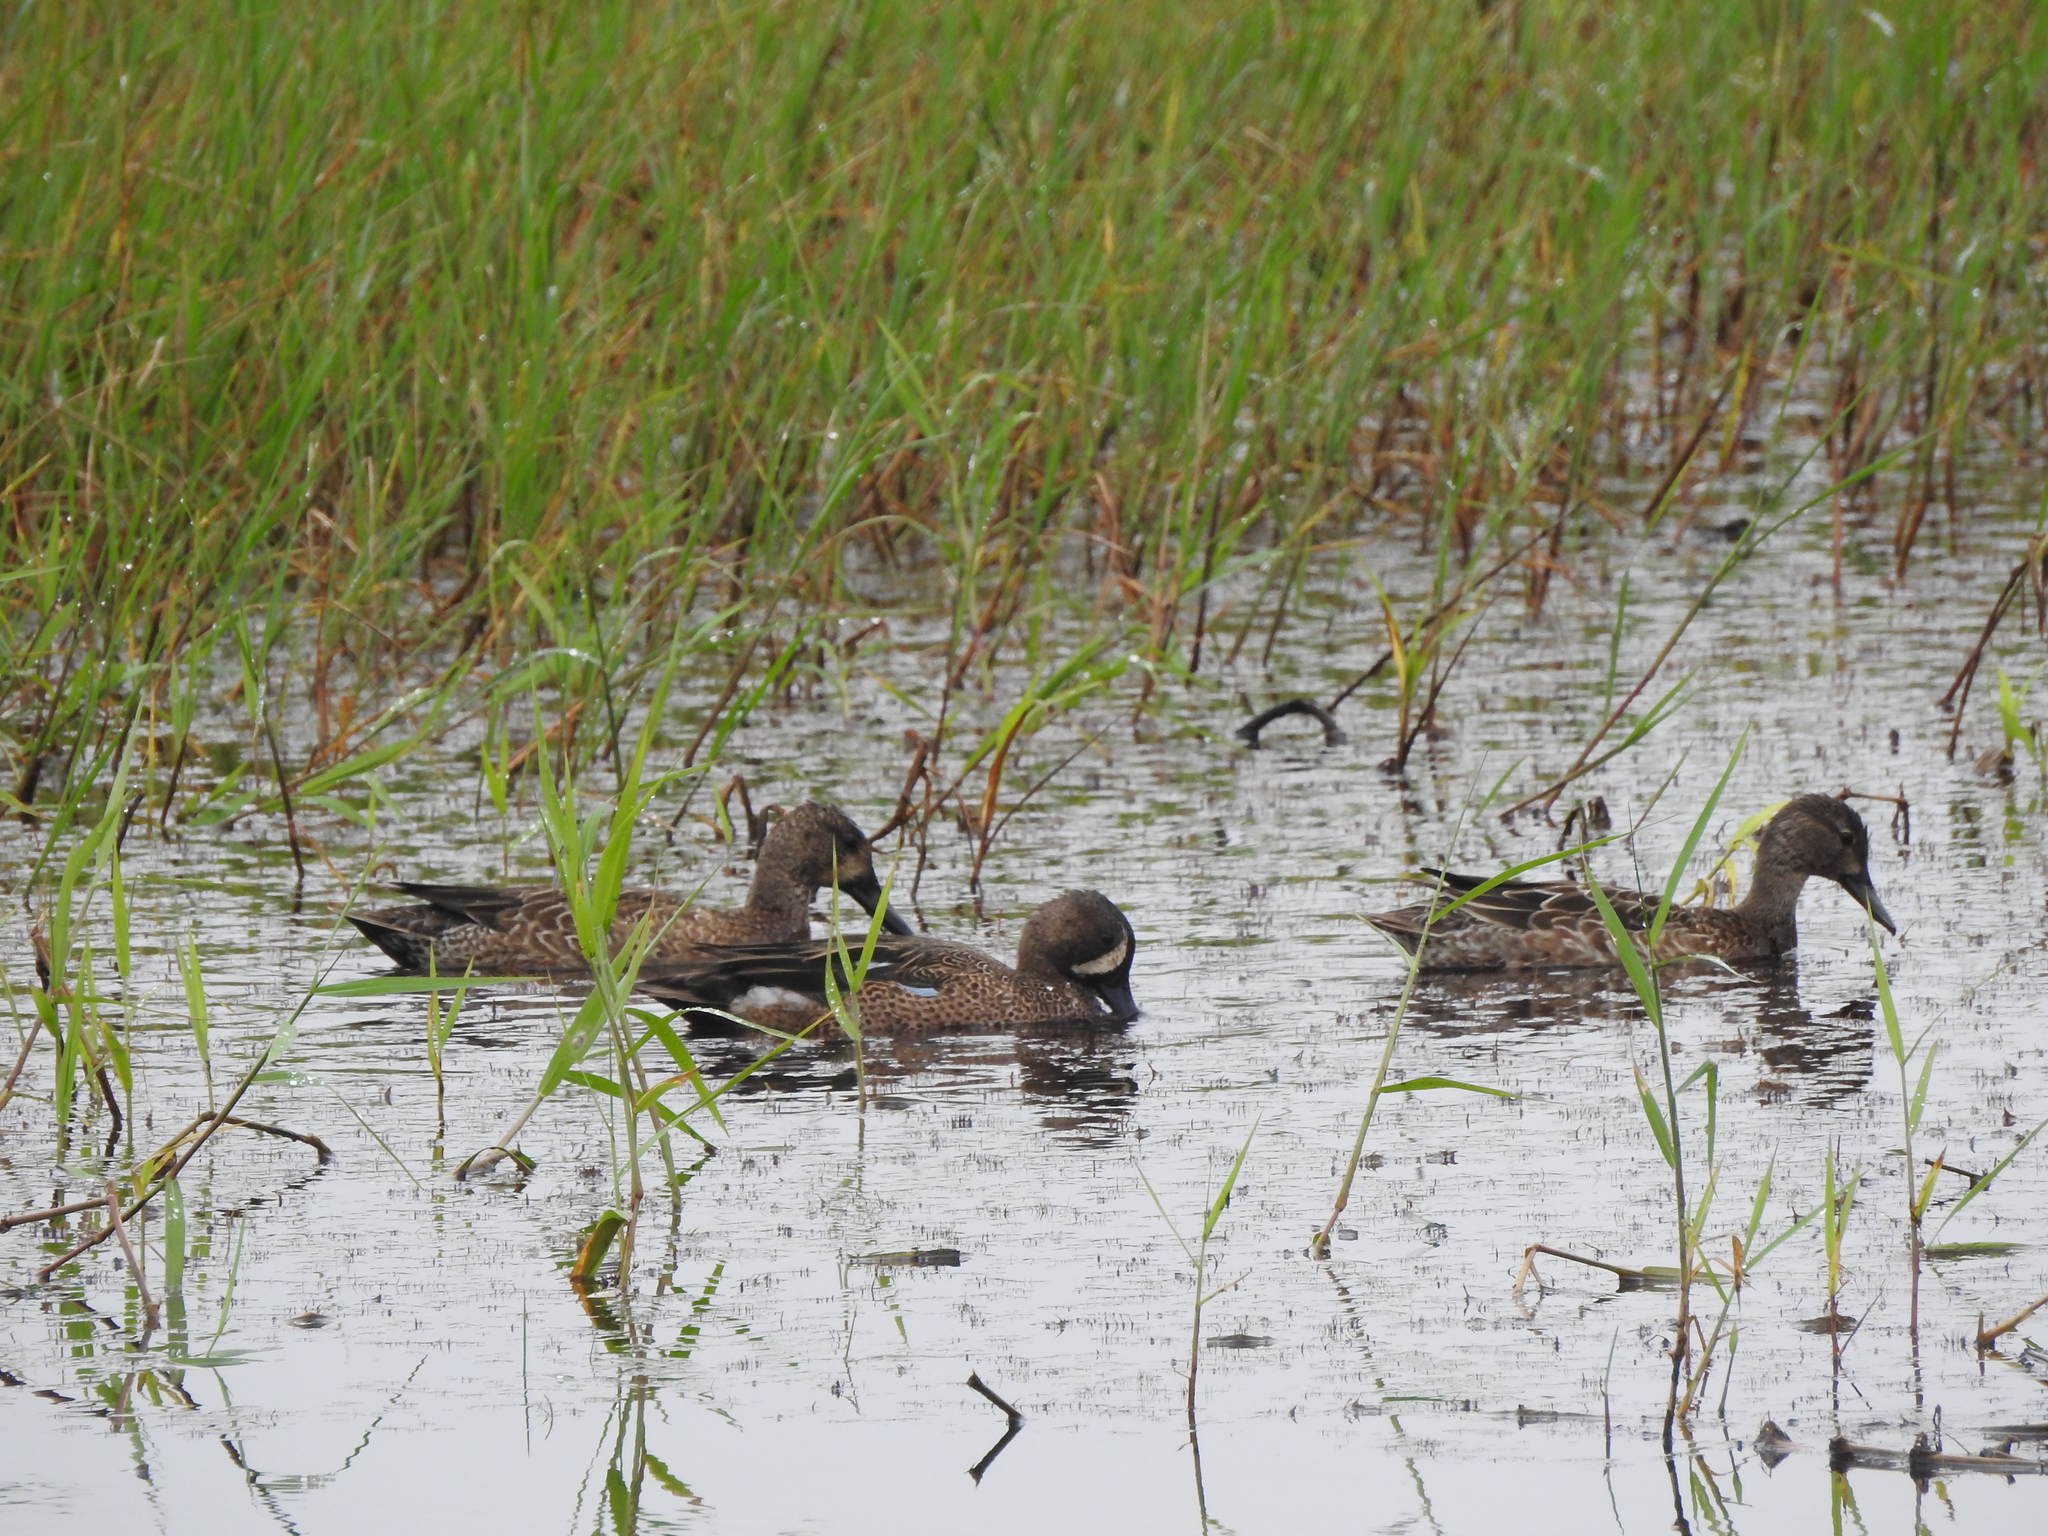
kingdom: Animalia
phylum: Chordata
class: Aves
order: Anseriformes
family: Anatidae
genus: Spatula
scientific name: Spatula discors
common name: Blue-winged teal
